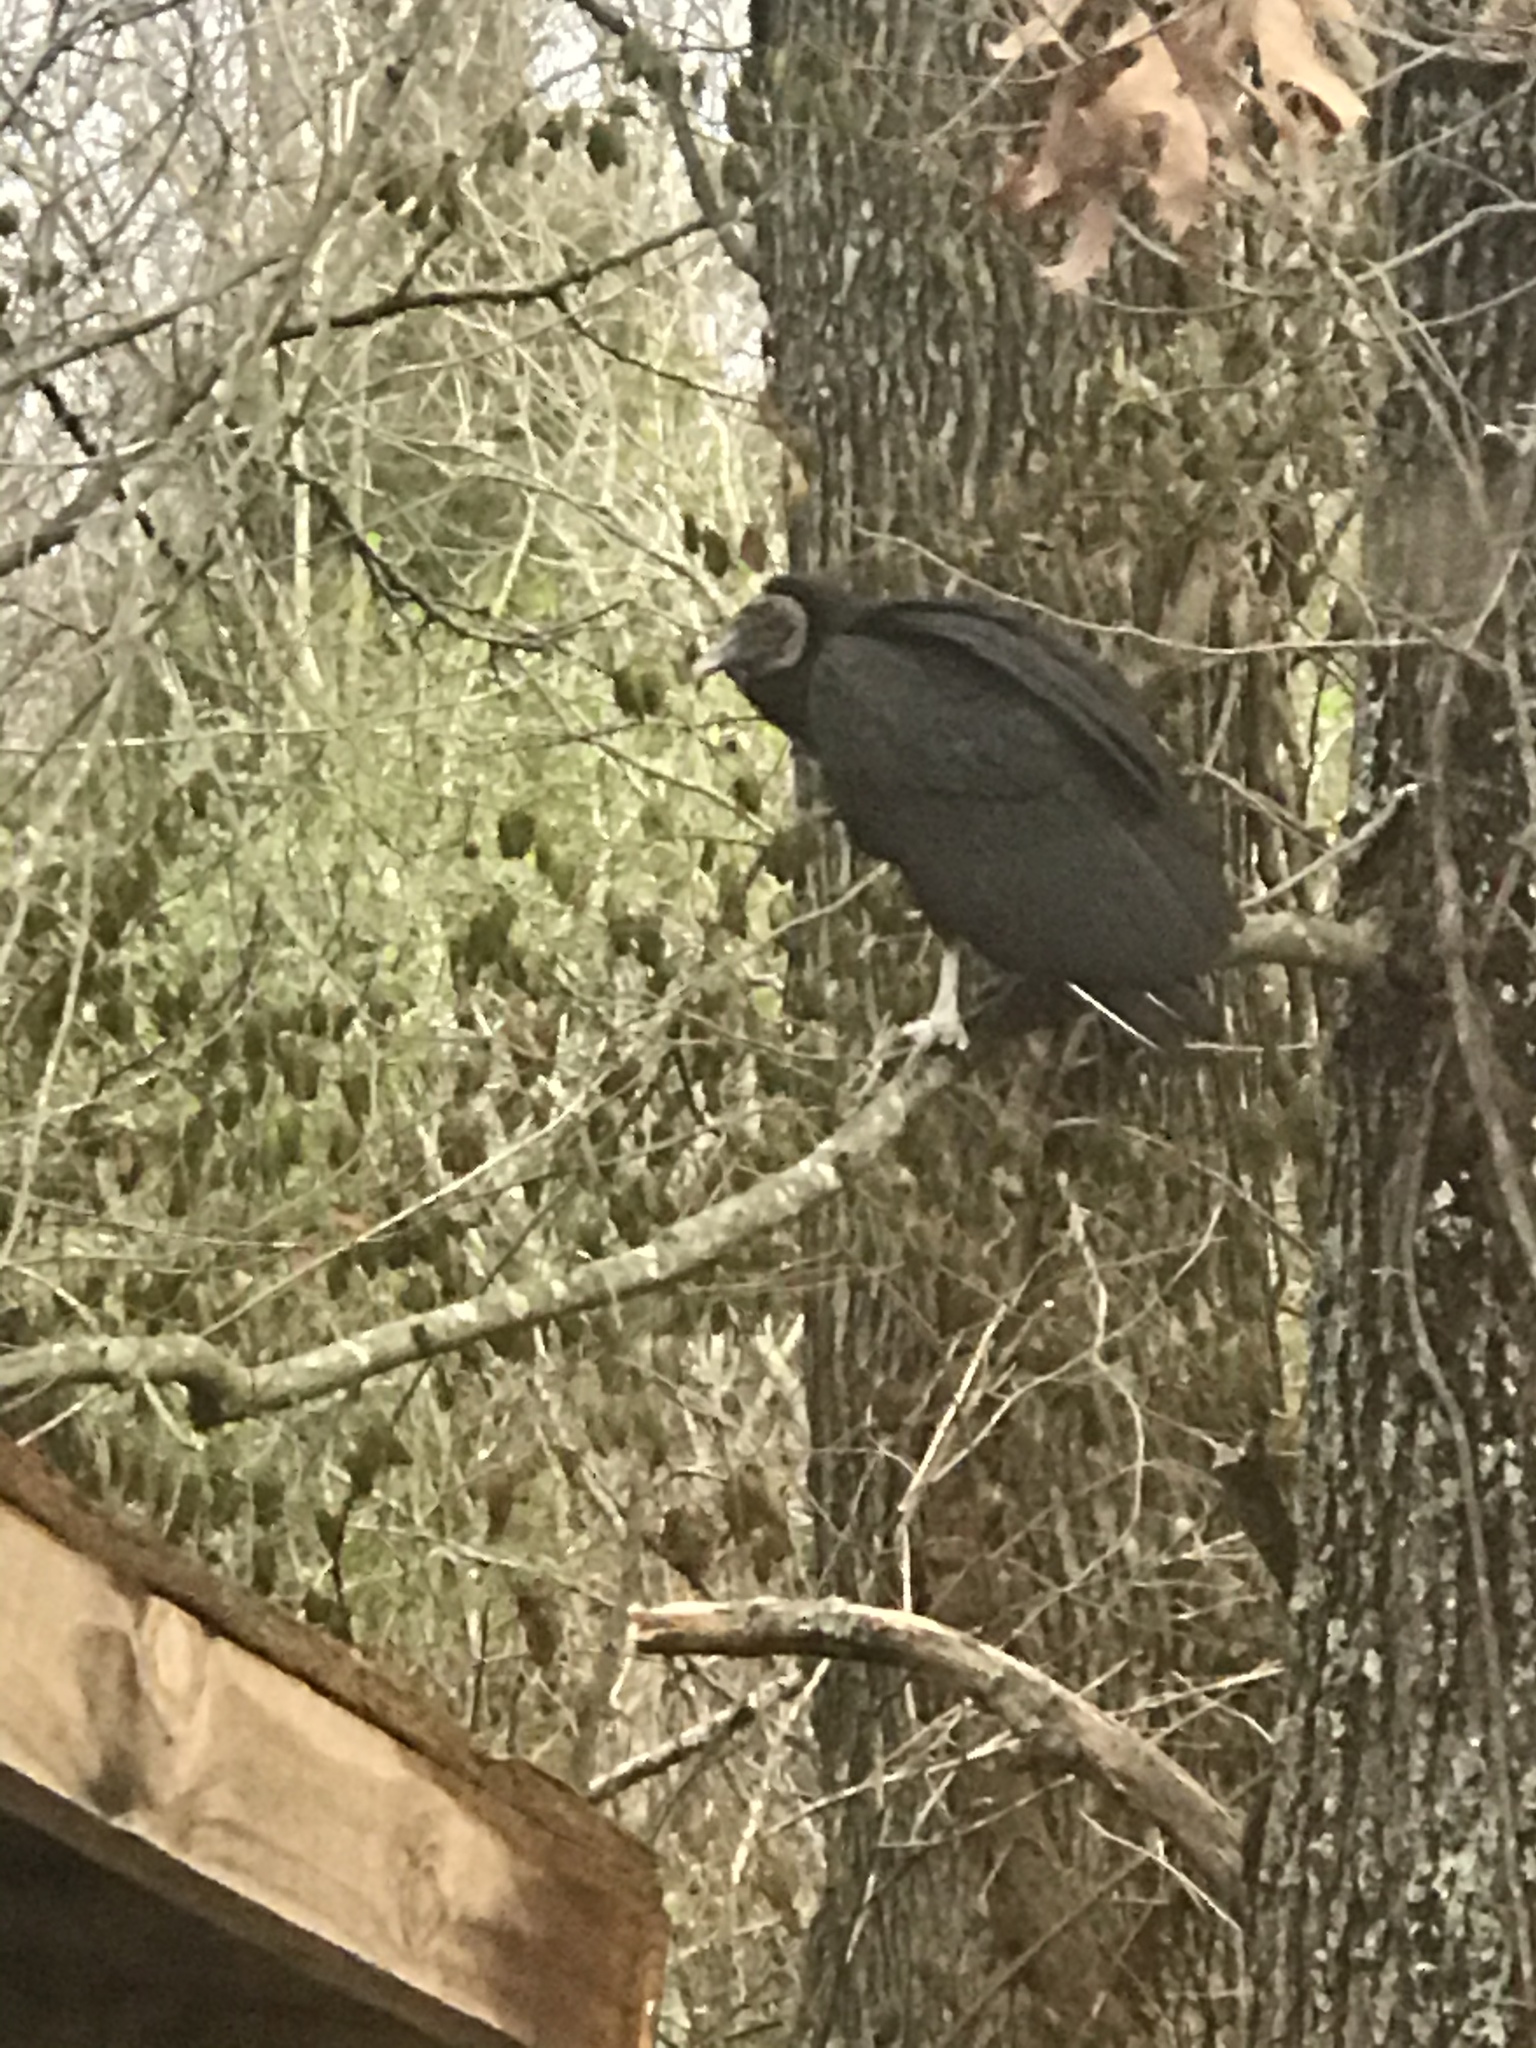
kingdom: Animalia
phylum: Chordata
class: Aves
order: Accipitriformes
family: Cathartidae
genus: Coragyps
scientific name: Coragyps atratus
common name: Black vulture
